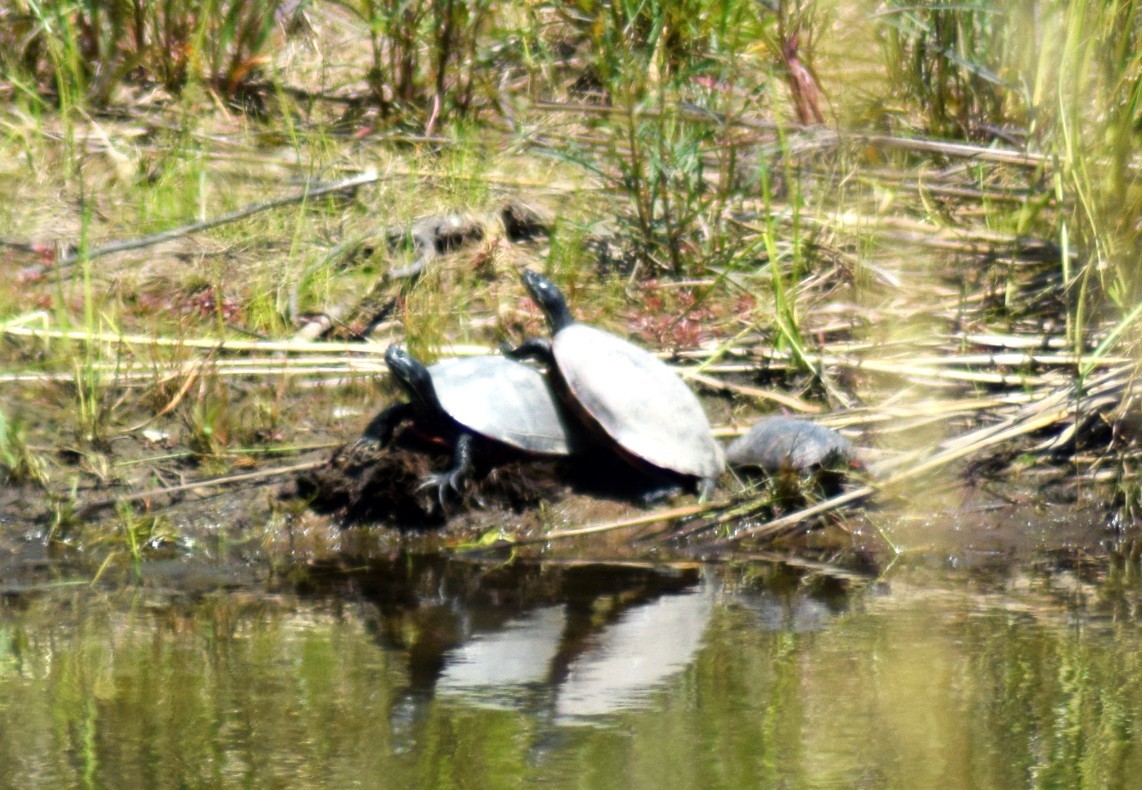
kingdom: Animalia
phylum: Chordata
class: Testudines
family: Emydidae
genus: Pseudemys
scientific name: Pseudemys rubriventris
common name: American red-bellied turtle
